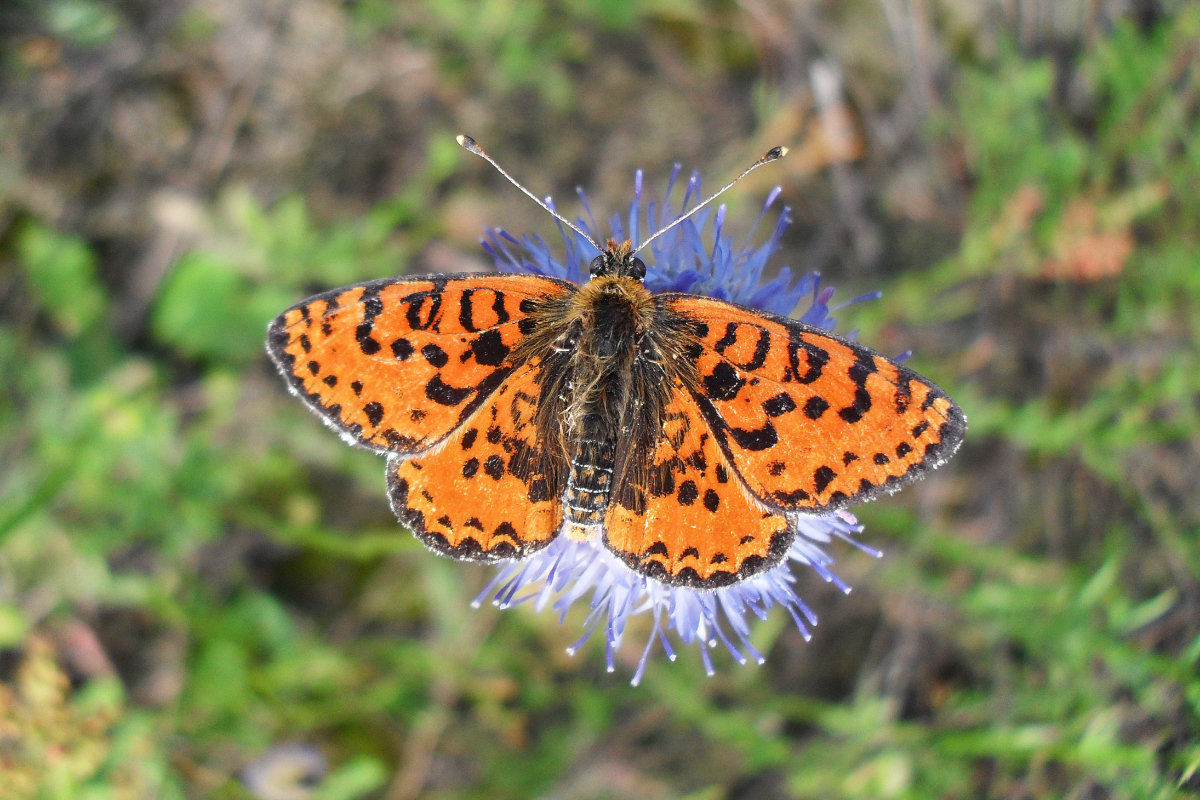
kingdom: Animalia
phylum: Arthropoda
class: Insecta
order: Lepidoptera
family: Nymphalidae
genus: Melitaea
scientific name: Melitaea didyma
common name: Spotted fritillary
